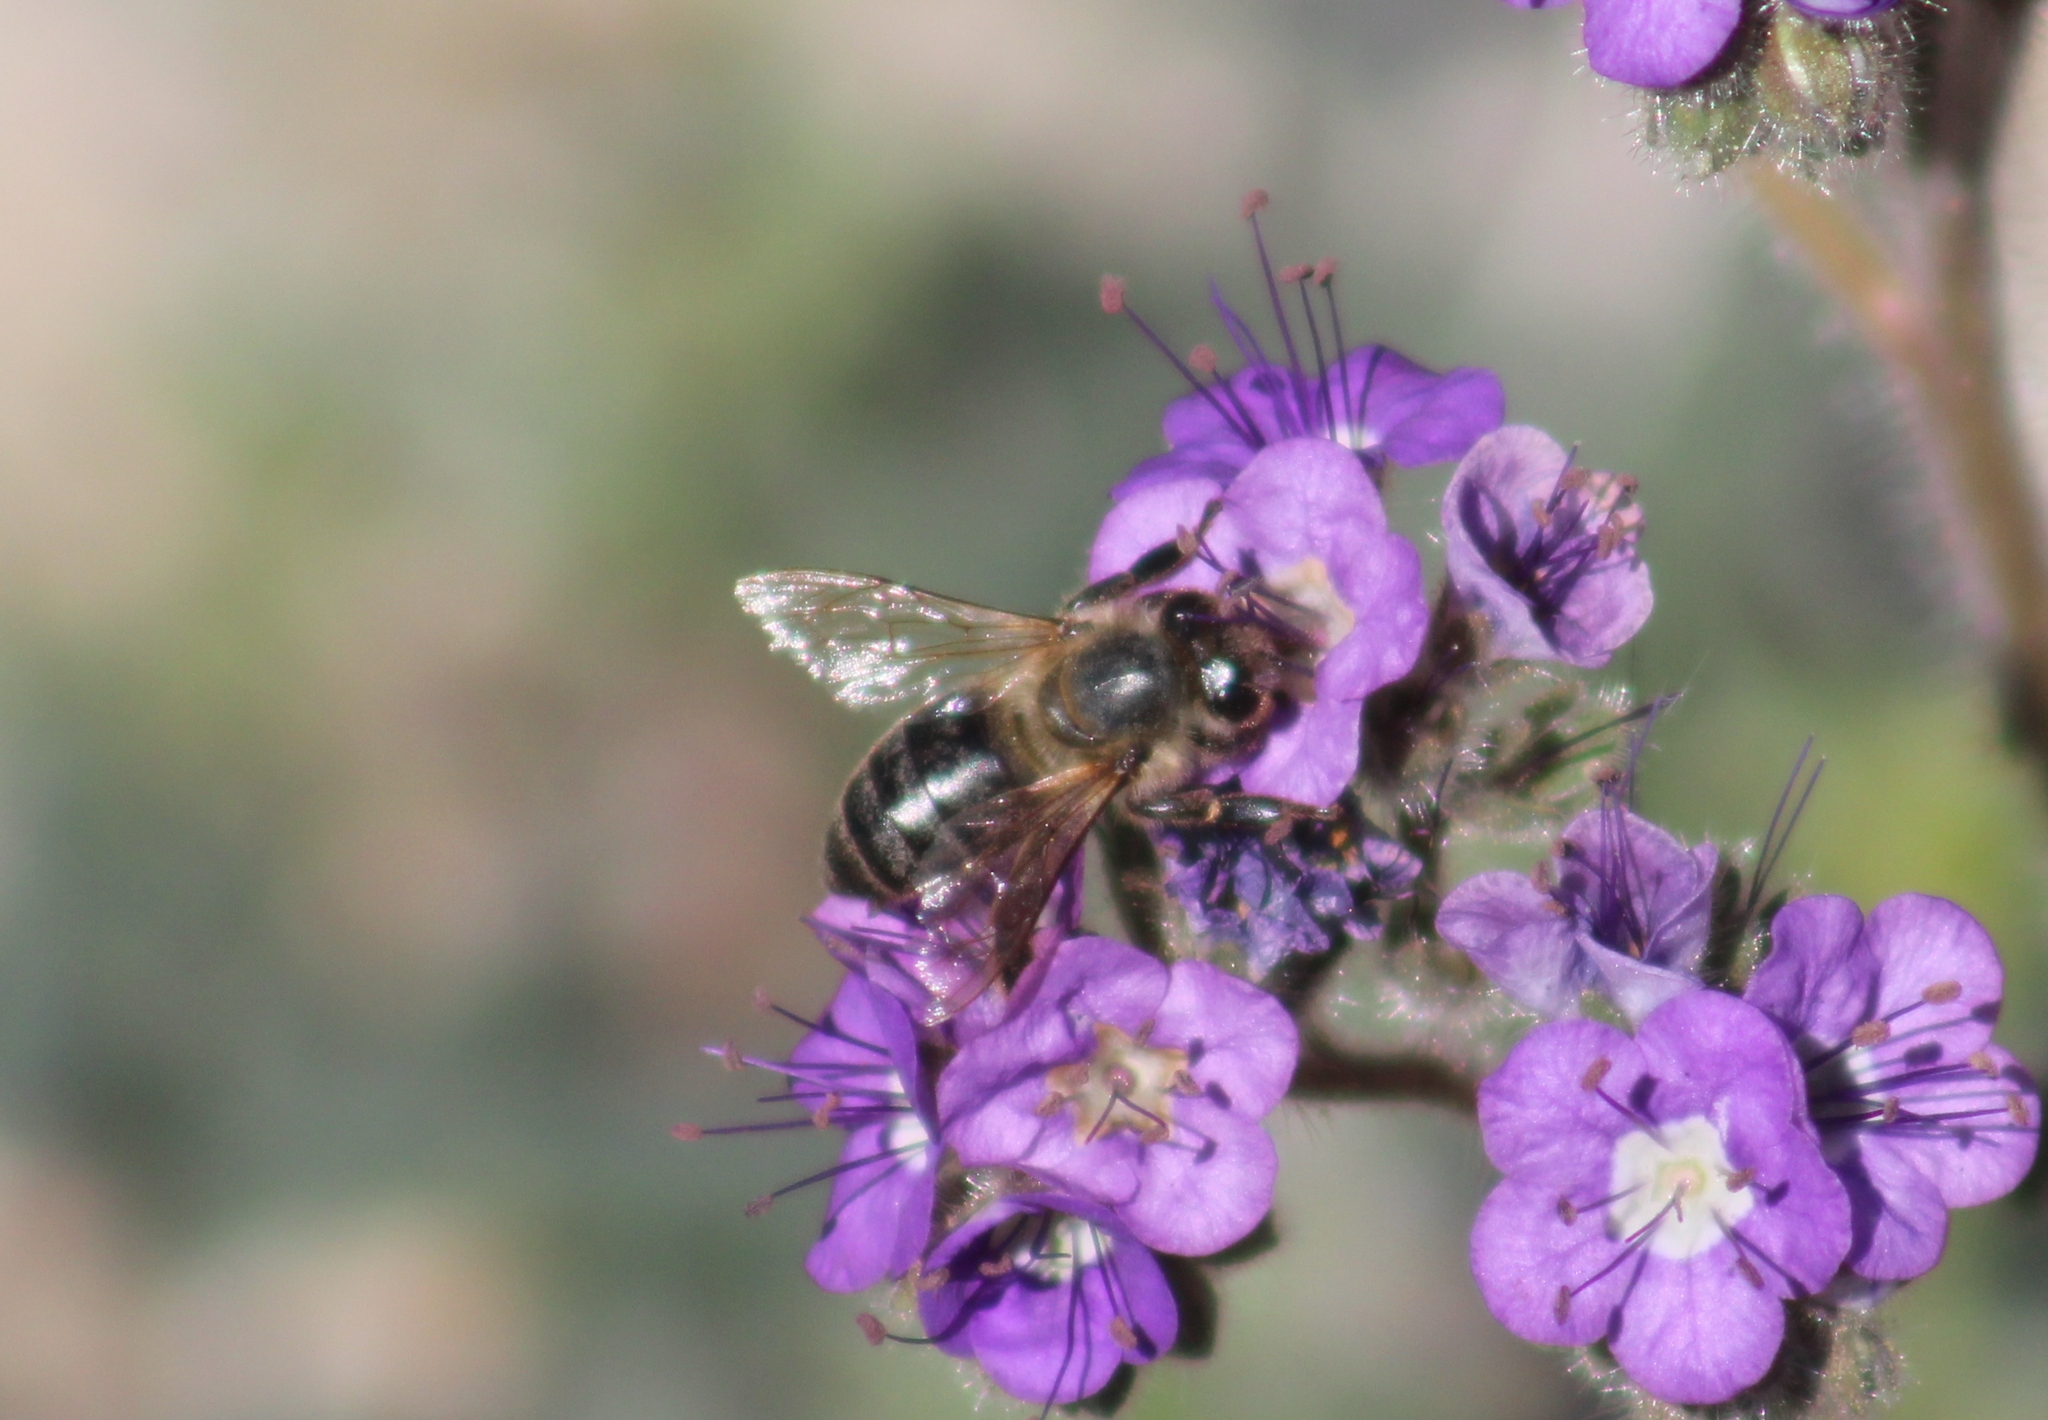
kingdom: Animalia
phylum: Arthropoda
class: Insecta
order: Hymenoptera
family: Apidae
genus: Apis
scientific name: Apis mellifera
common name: Honey bee
